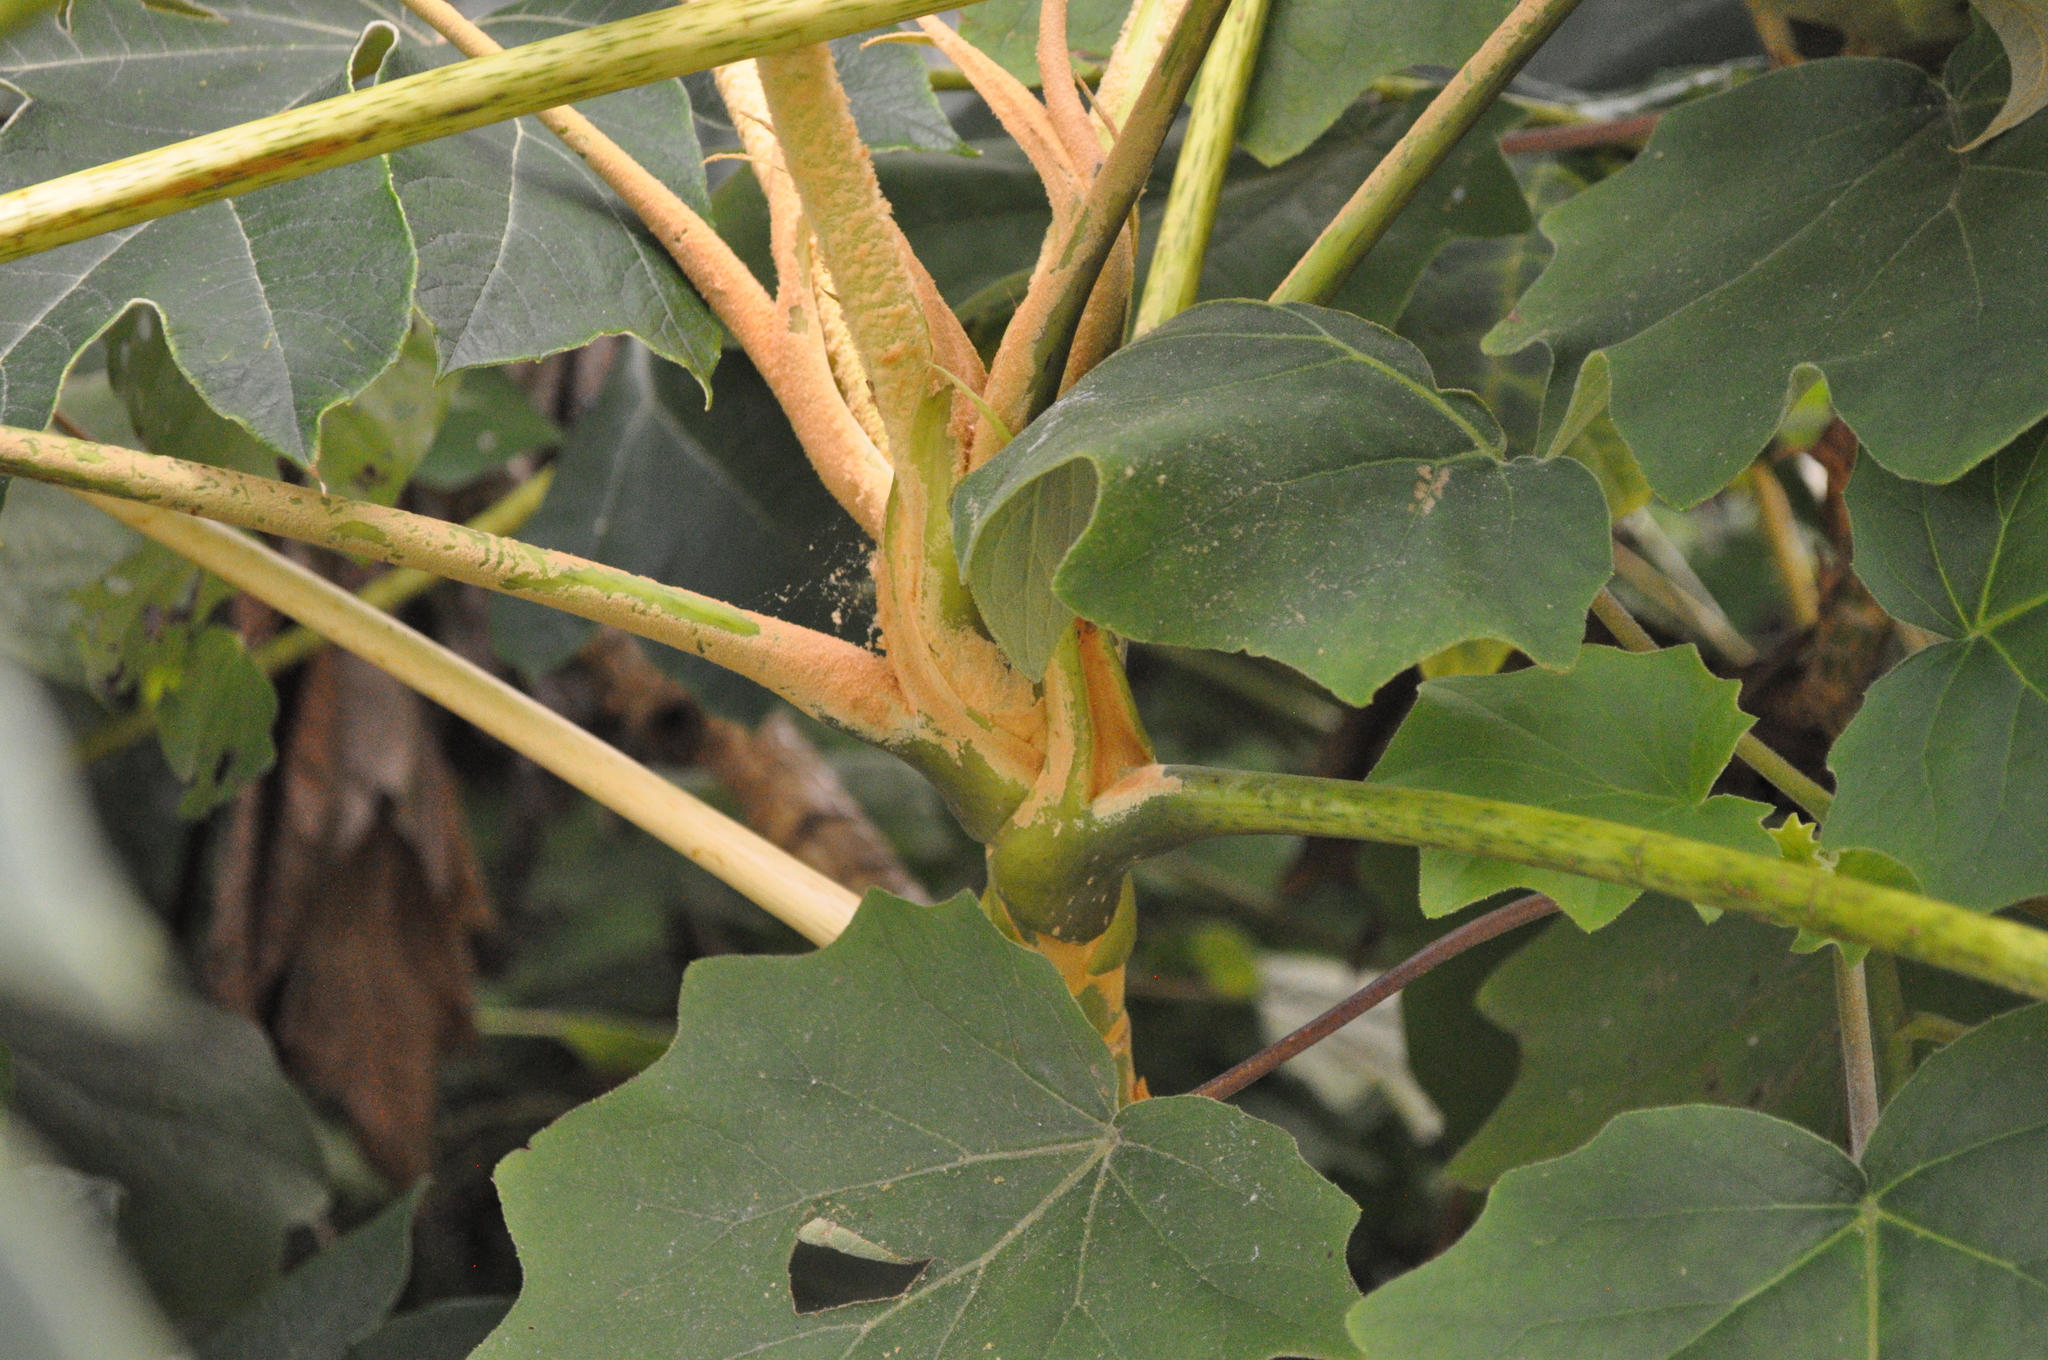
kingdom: Plantae
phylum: Tracheophyta
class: Magnoliopsida
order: Apiales
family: Araliaceae
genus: Tetrapanax
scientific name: Tetrapanax papyrifer
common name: Rice-paper plant
